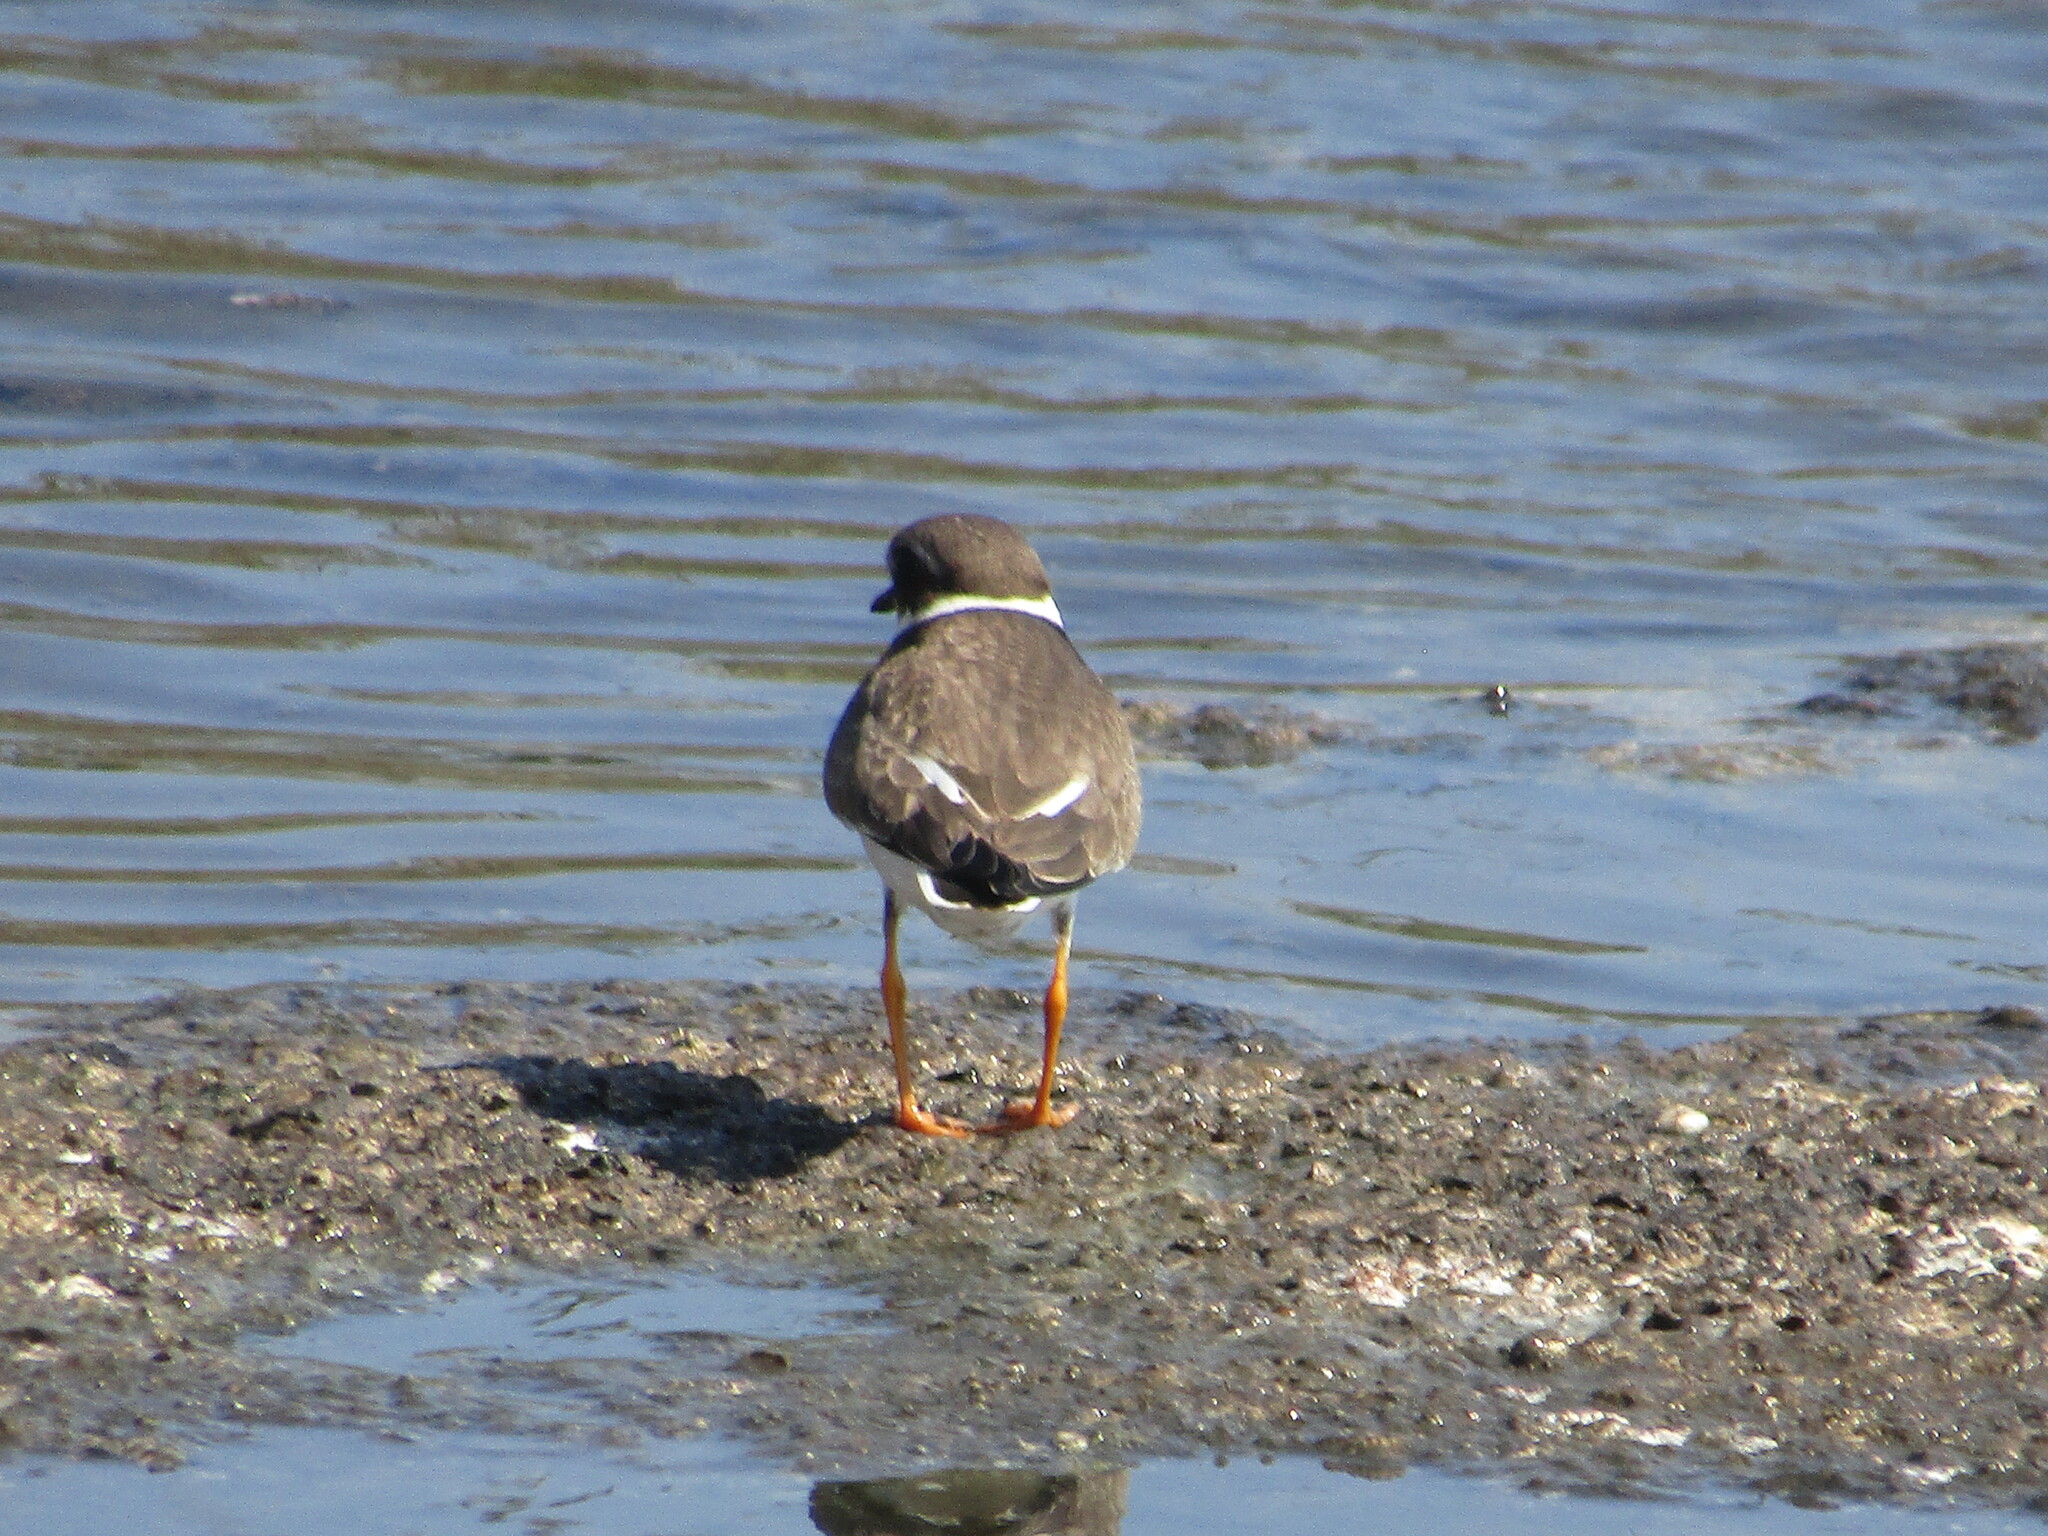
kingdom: Animalia
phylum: Chordata
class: Aves
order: Charadriiformes
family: Charadriidae
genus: Charadrius
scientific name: Charadrius hiaticula
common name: Common ringed plover
